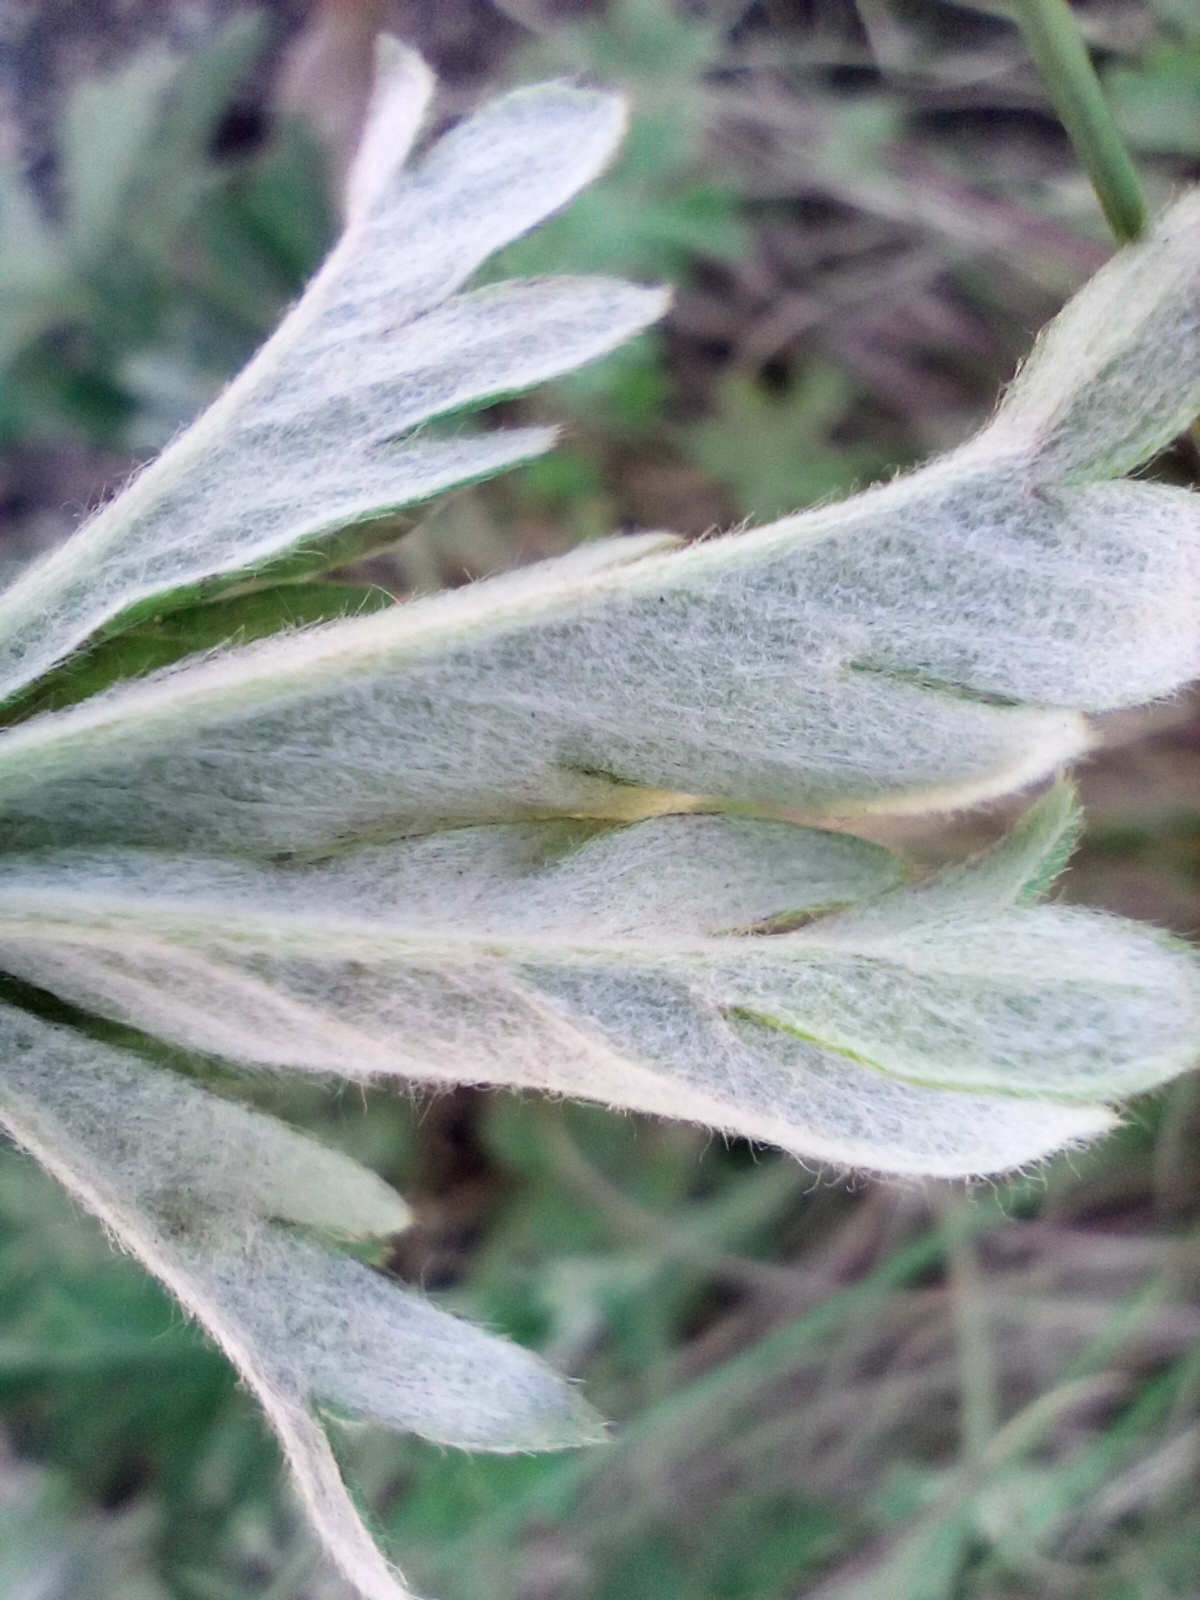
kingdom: Plantae
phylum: Tracheophyta
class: Magnoliopsida
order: Rosales
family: Rosaceae
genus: Potentilla
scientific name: Potentilla argentea
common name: Hoary cinquefoil
